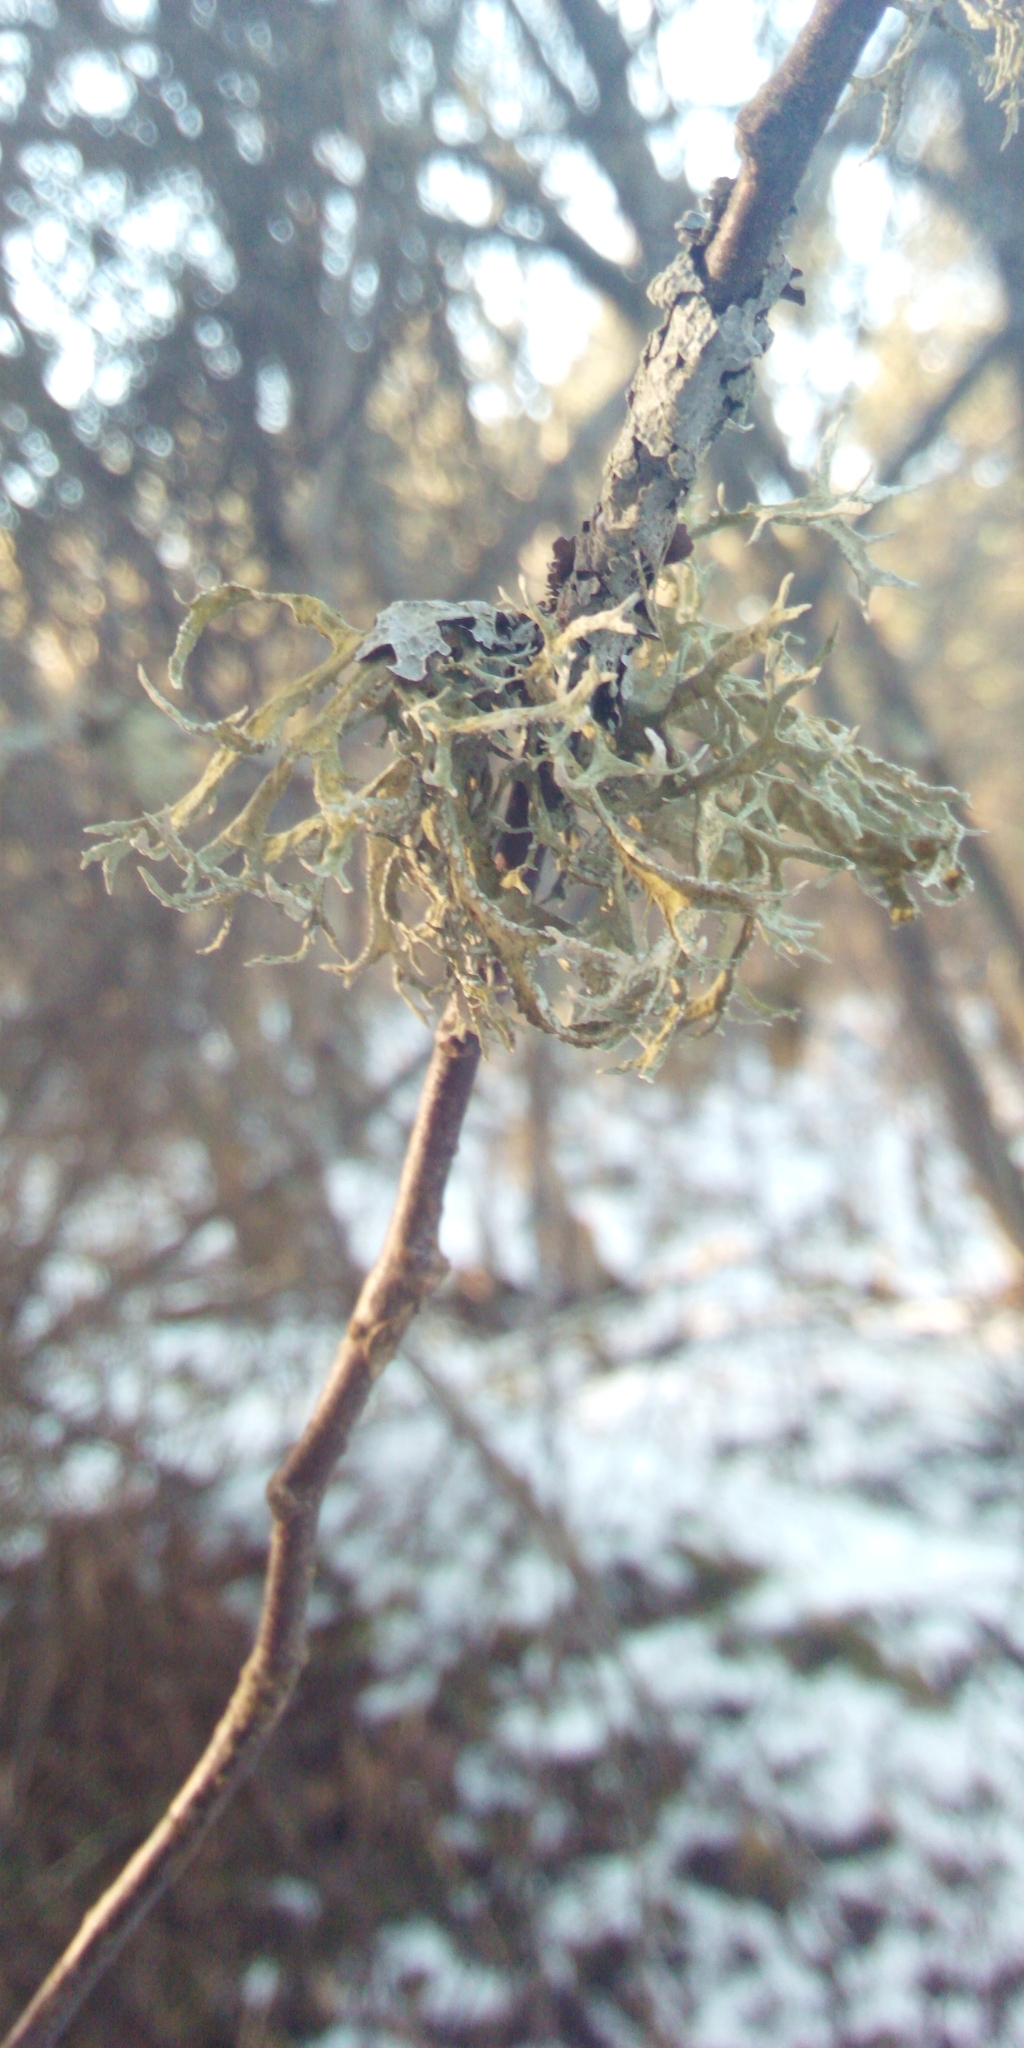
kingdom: Fungi
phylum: Ascomycota
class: Lecanoromycetes
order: Lecanorales
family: Parmeliaceae
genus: Evernia
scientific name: Evernia prunastri
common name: Oak moss
